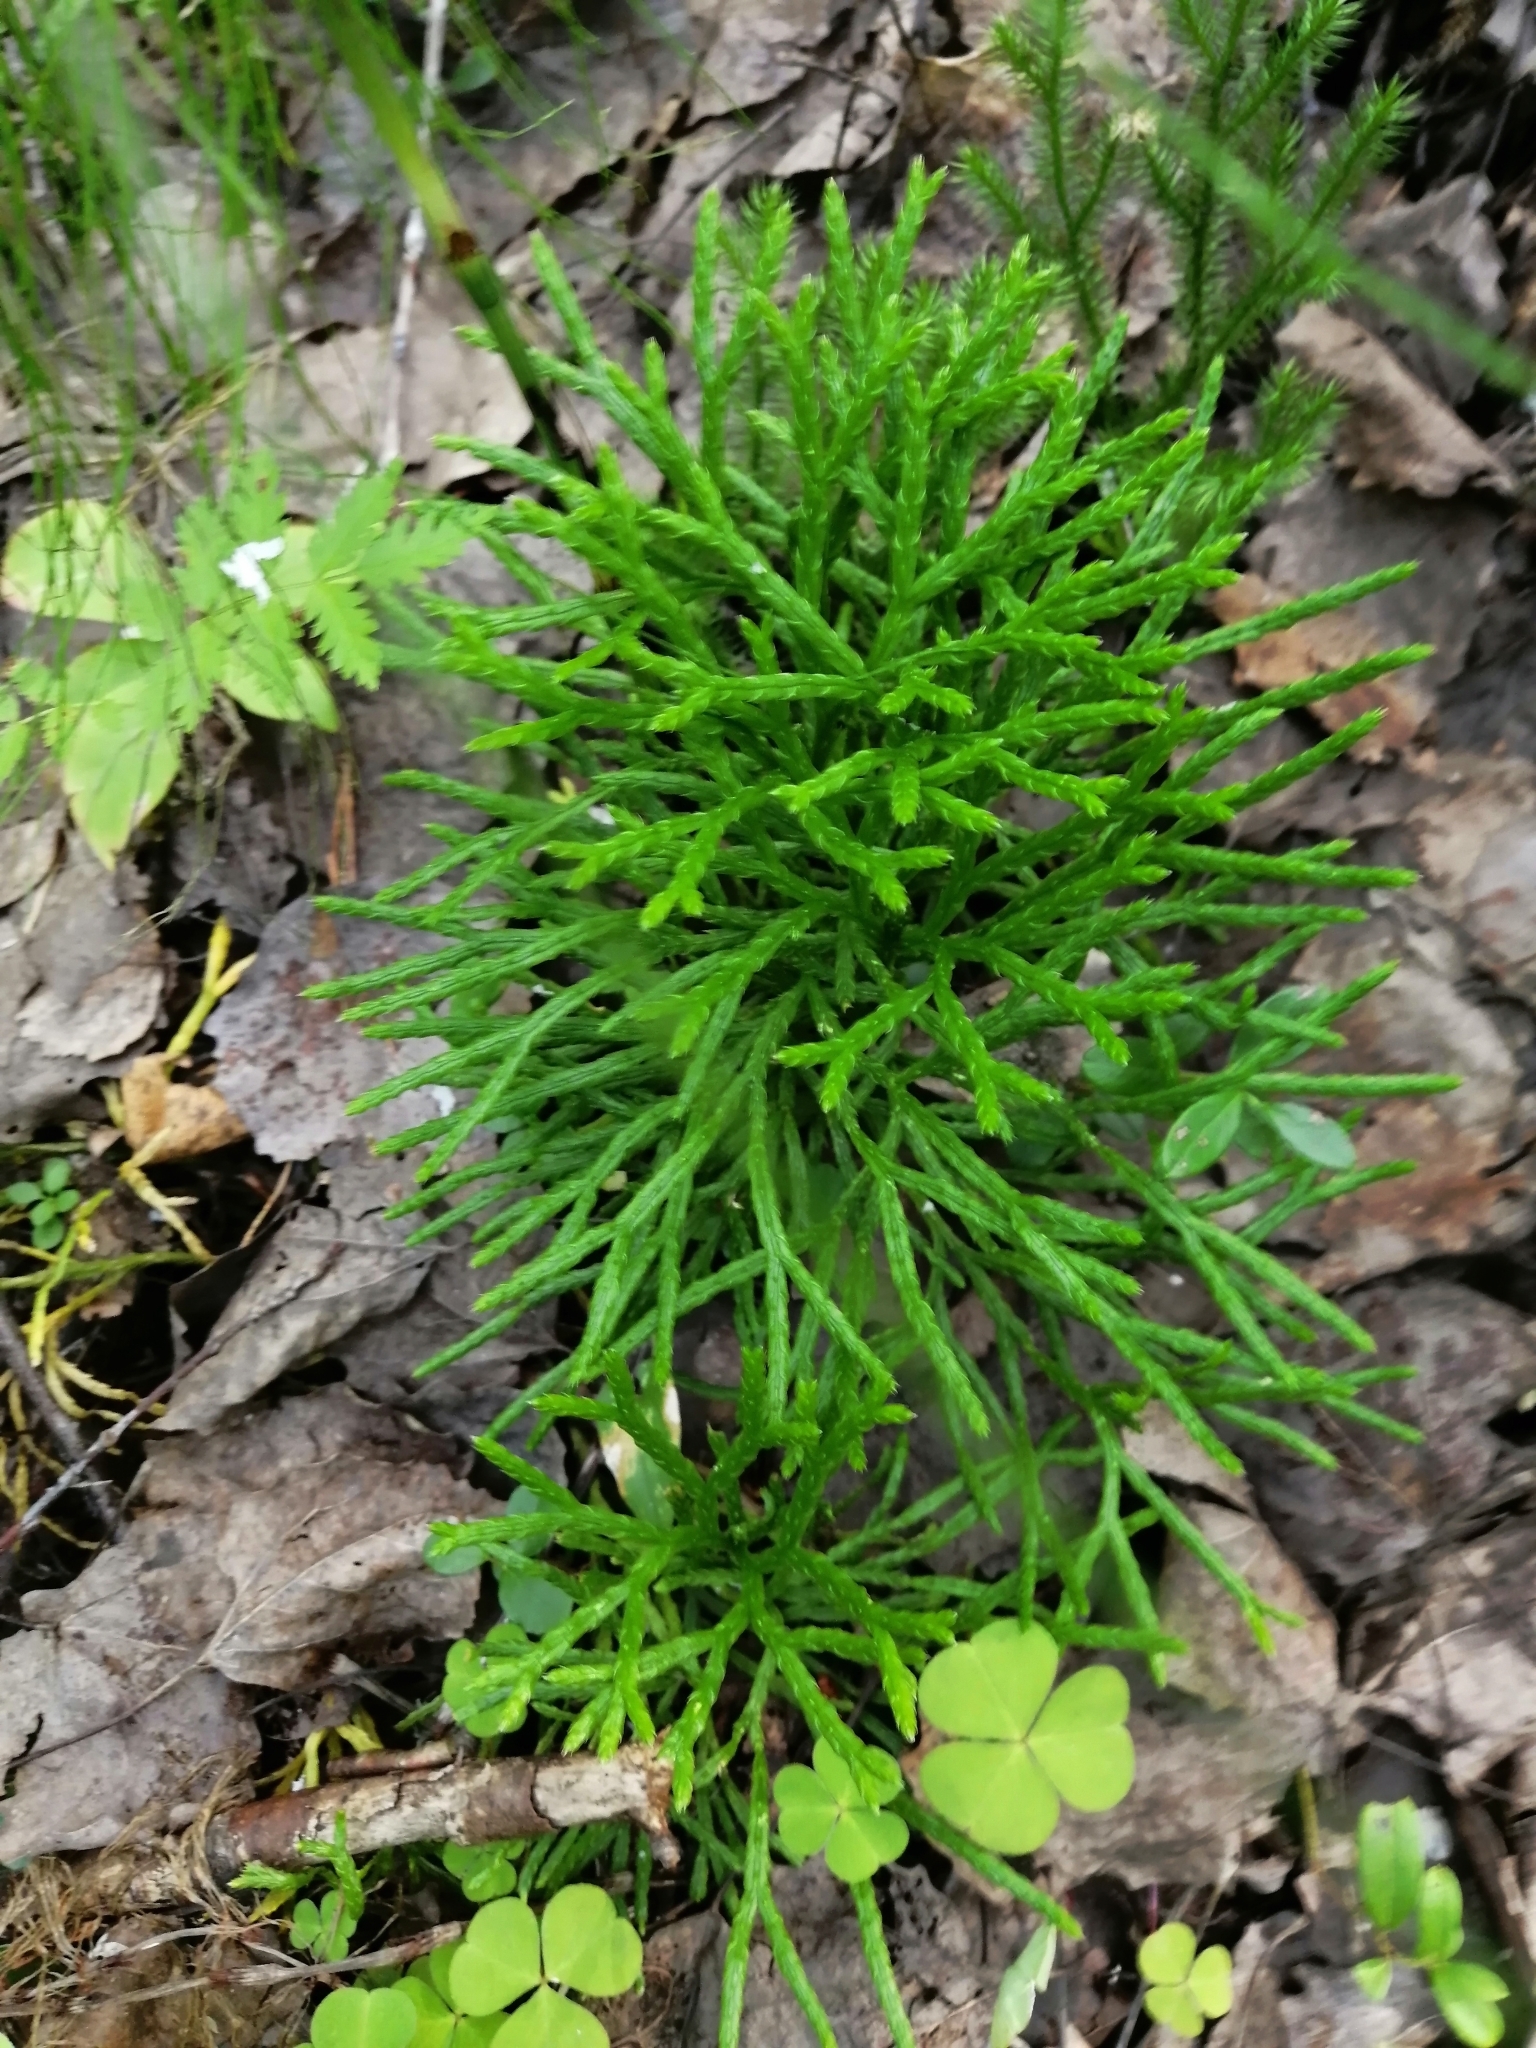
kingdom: Plantae
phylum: Tracheophyta
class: Lycopodiopsida
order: Lycopodiales
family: Lycopodiaceae
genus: Diphasiastrum
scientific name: Diphasiastrum complanatum
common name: Northern running-pine
